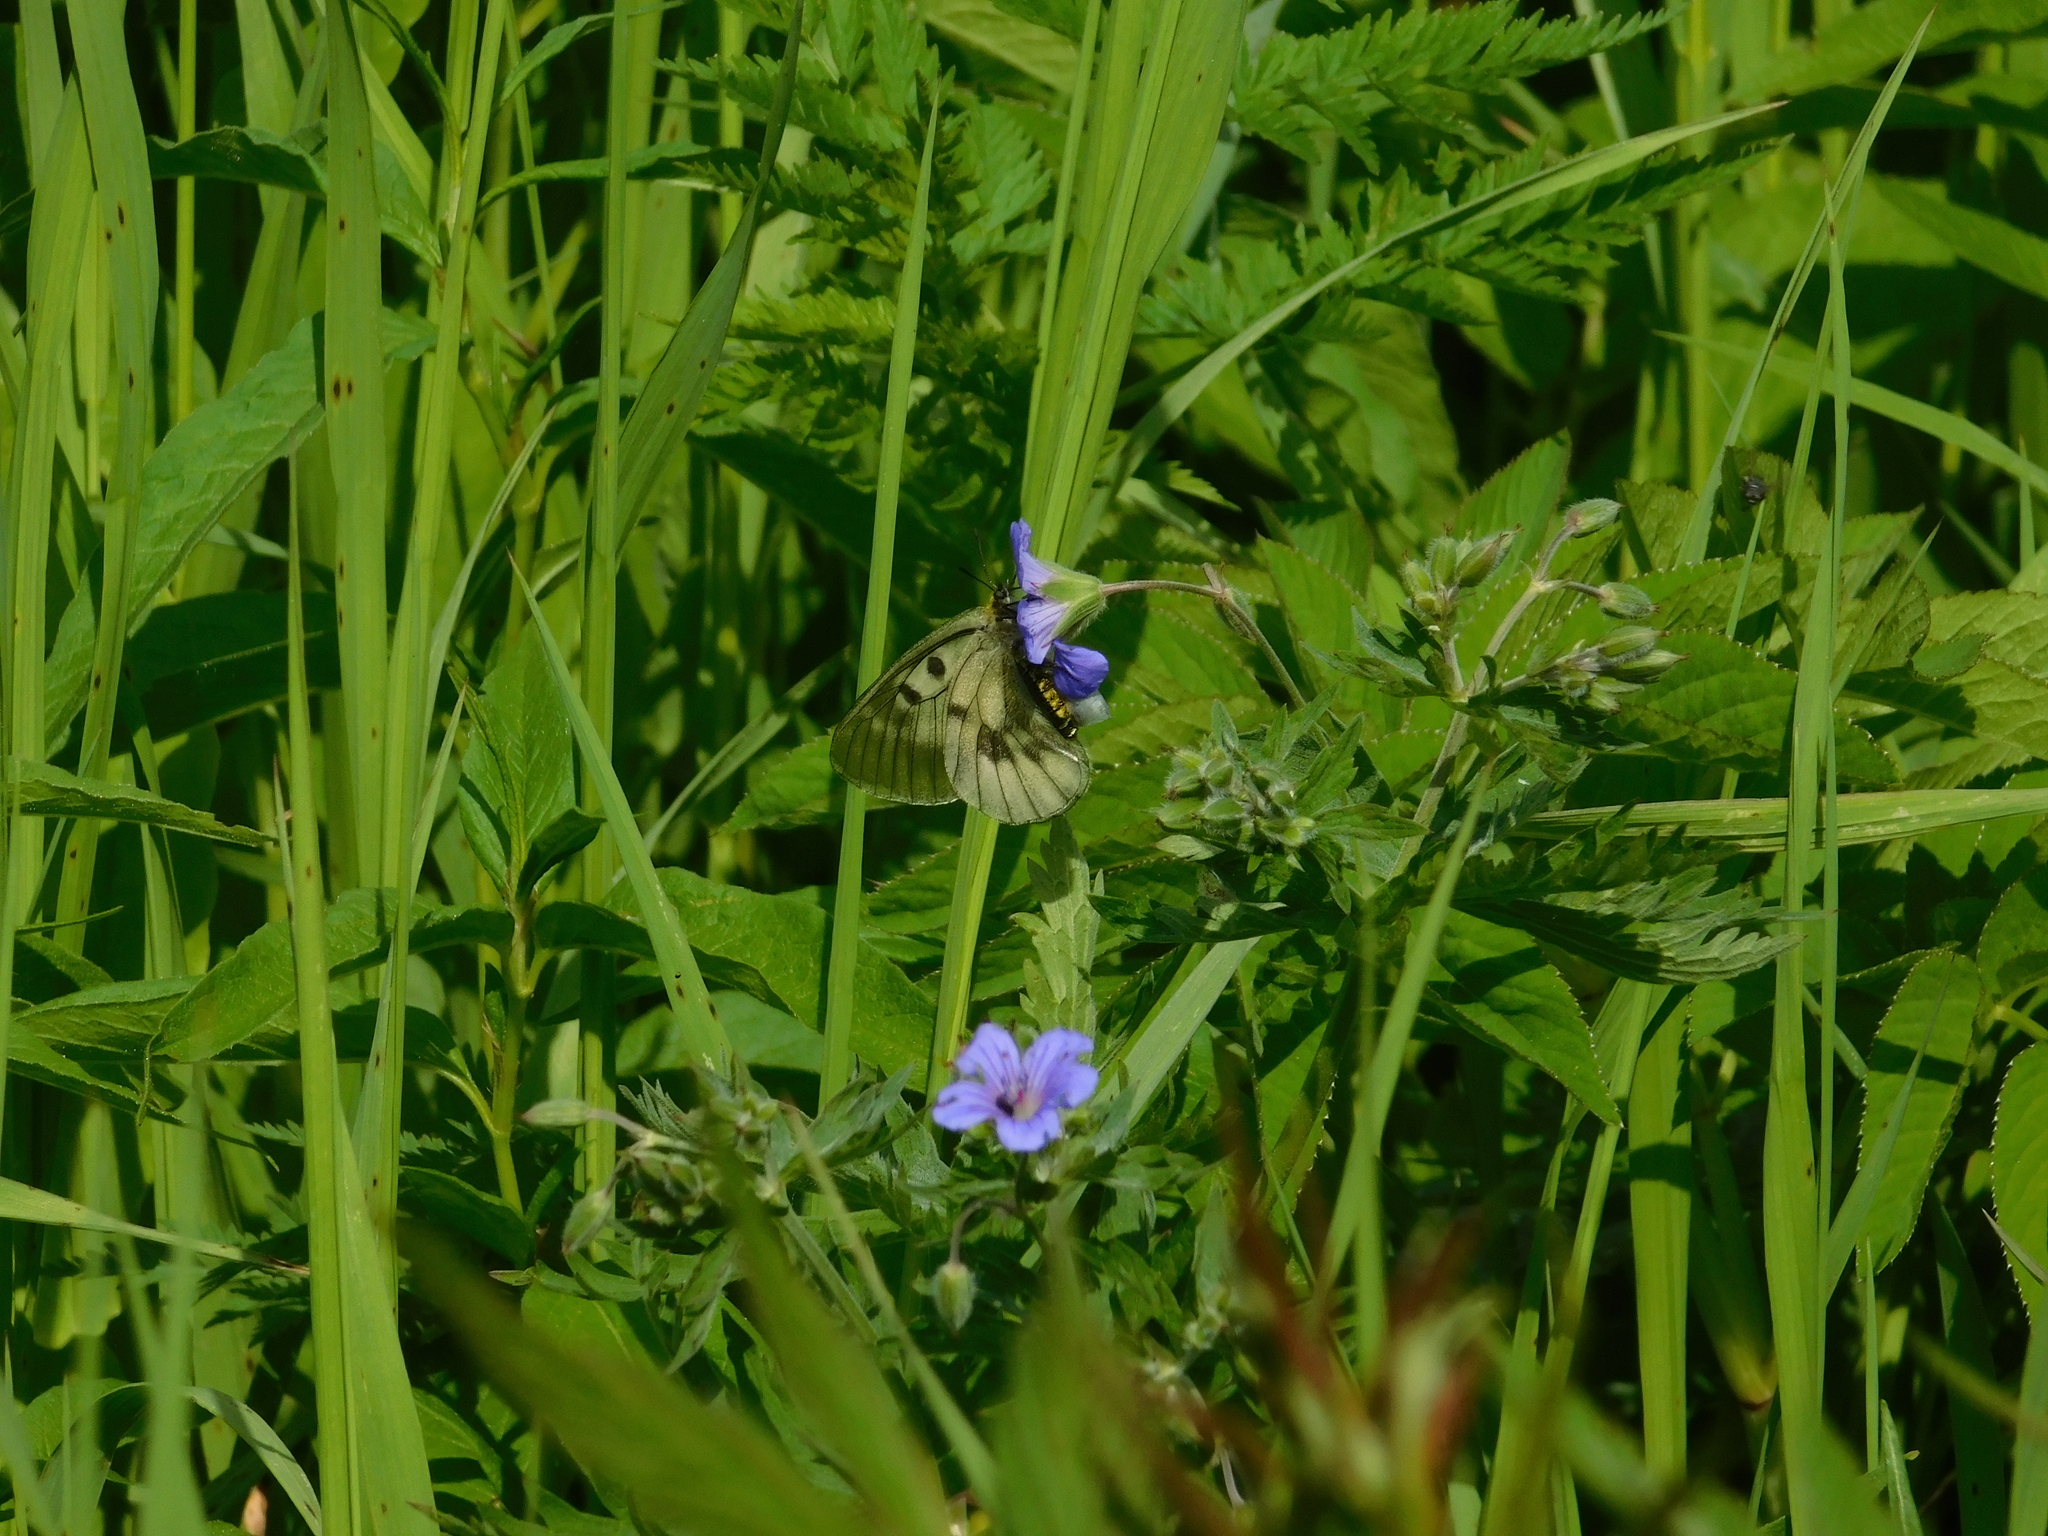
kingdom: Animalia
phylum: Arthropoda
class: Insecta
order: Lepidoptera
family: Papilionidae
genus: Parnassius
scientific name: Parnassius mnemosyne
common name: Clouded apollo
